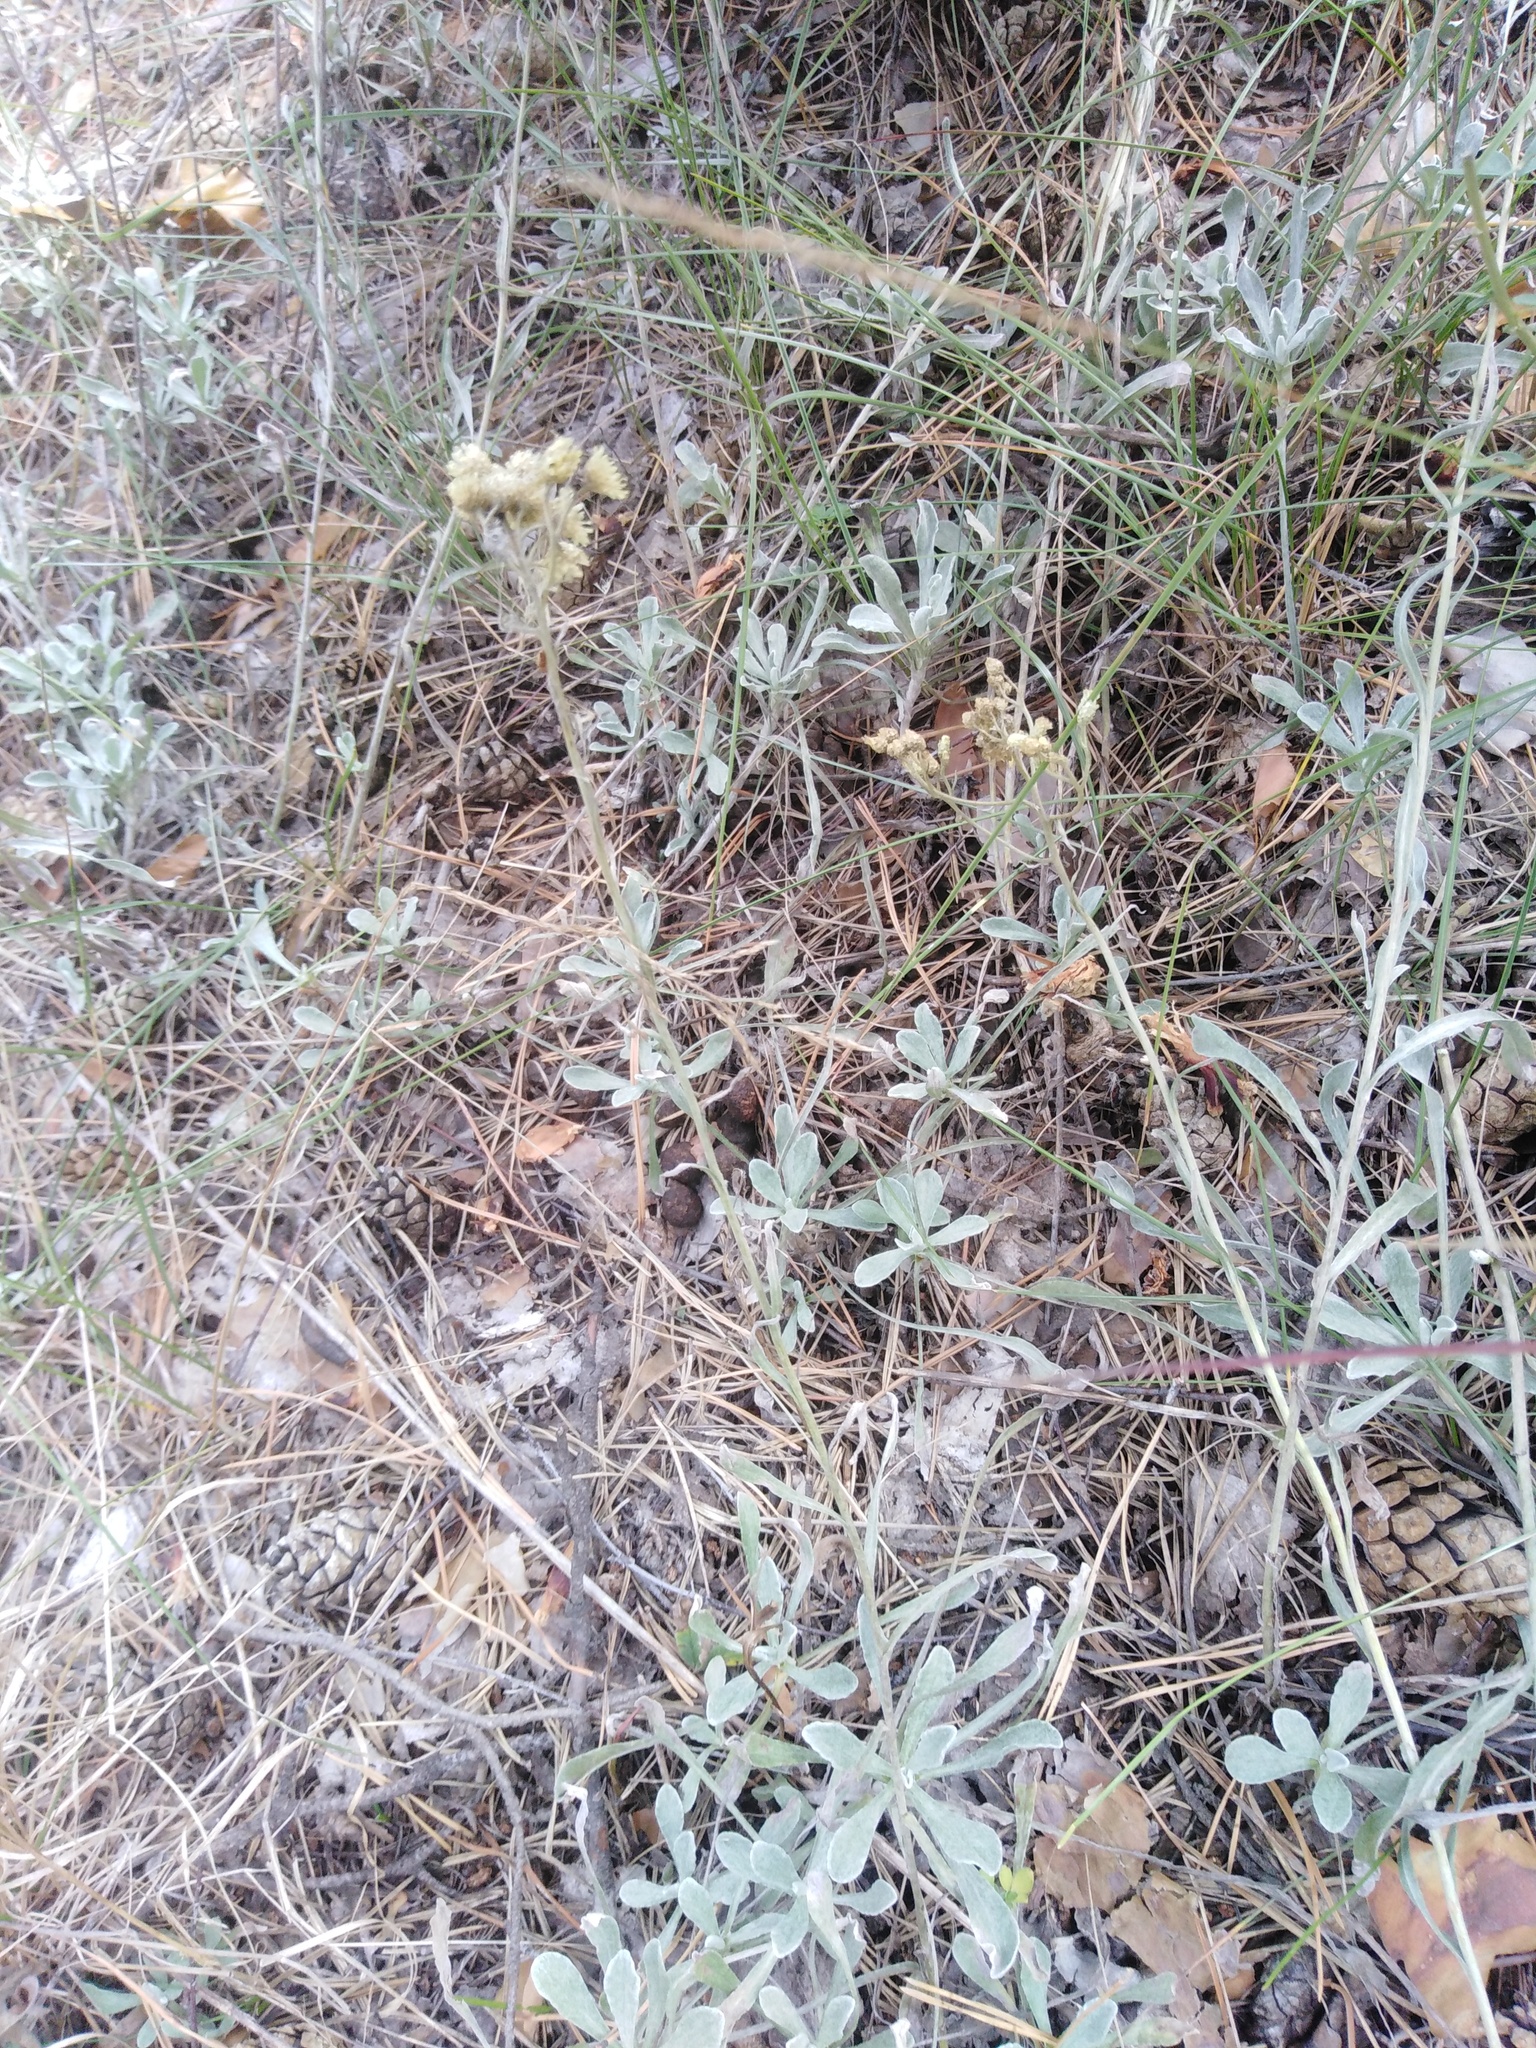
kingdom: Plantae
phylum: Tracheophyta
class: Magnoliopsida
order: Asterales
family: Asteraceae
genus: Helichrysum
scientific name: Helichrysum arenarium
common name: Strawflower
